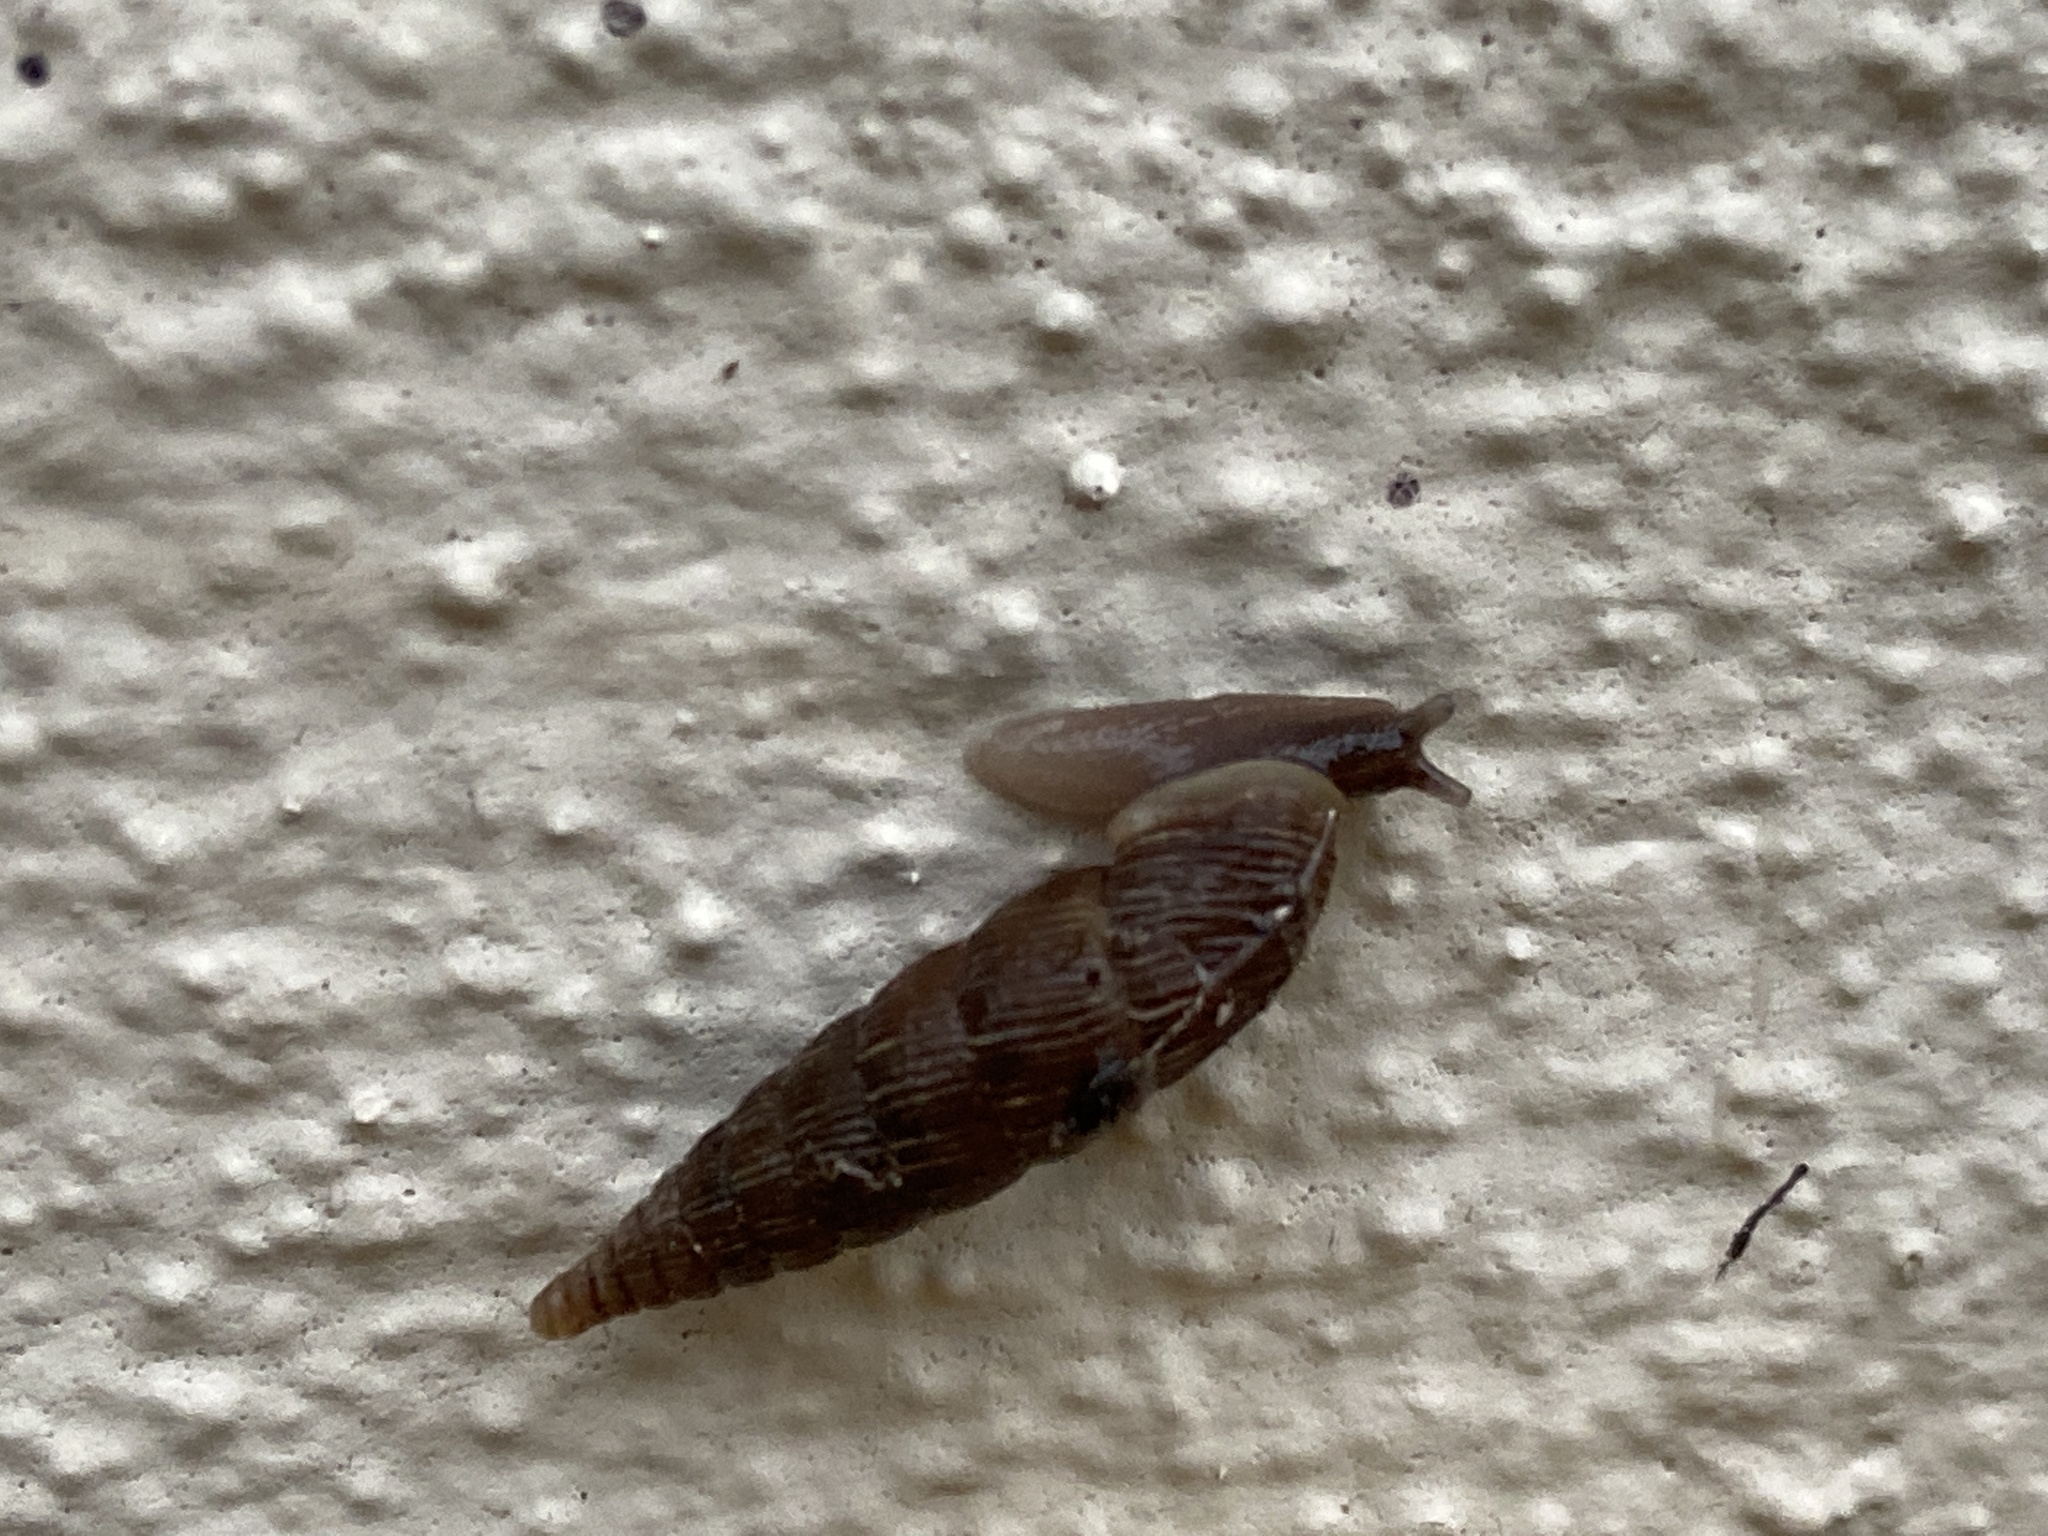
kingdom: Animalia
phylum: Mollusca
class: Gastropoda
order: Stylommatophora
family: Clausiliidae
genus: Alinda
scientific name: Alinda biplicata
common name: Thames door snail
